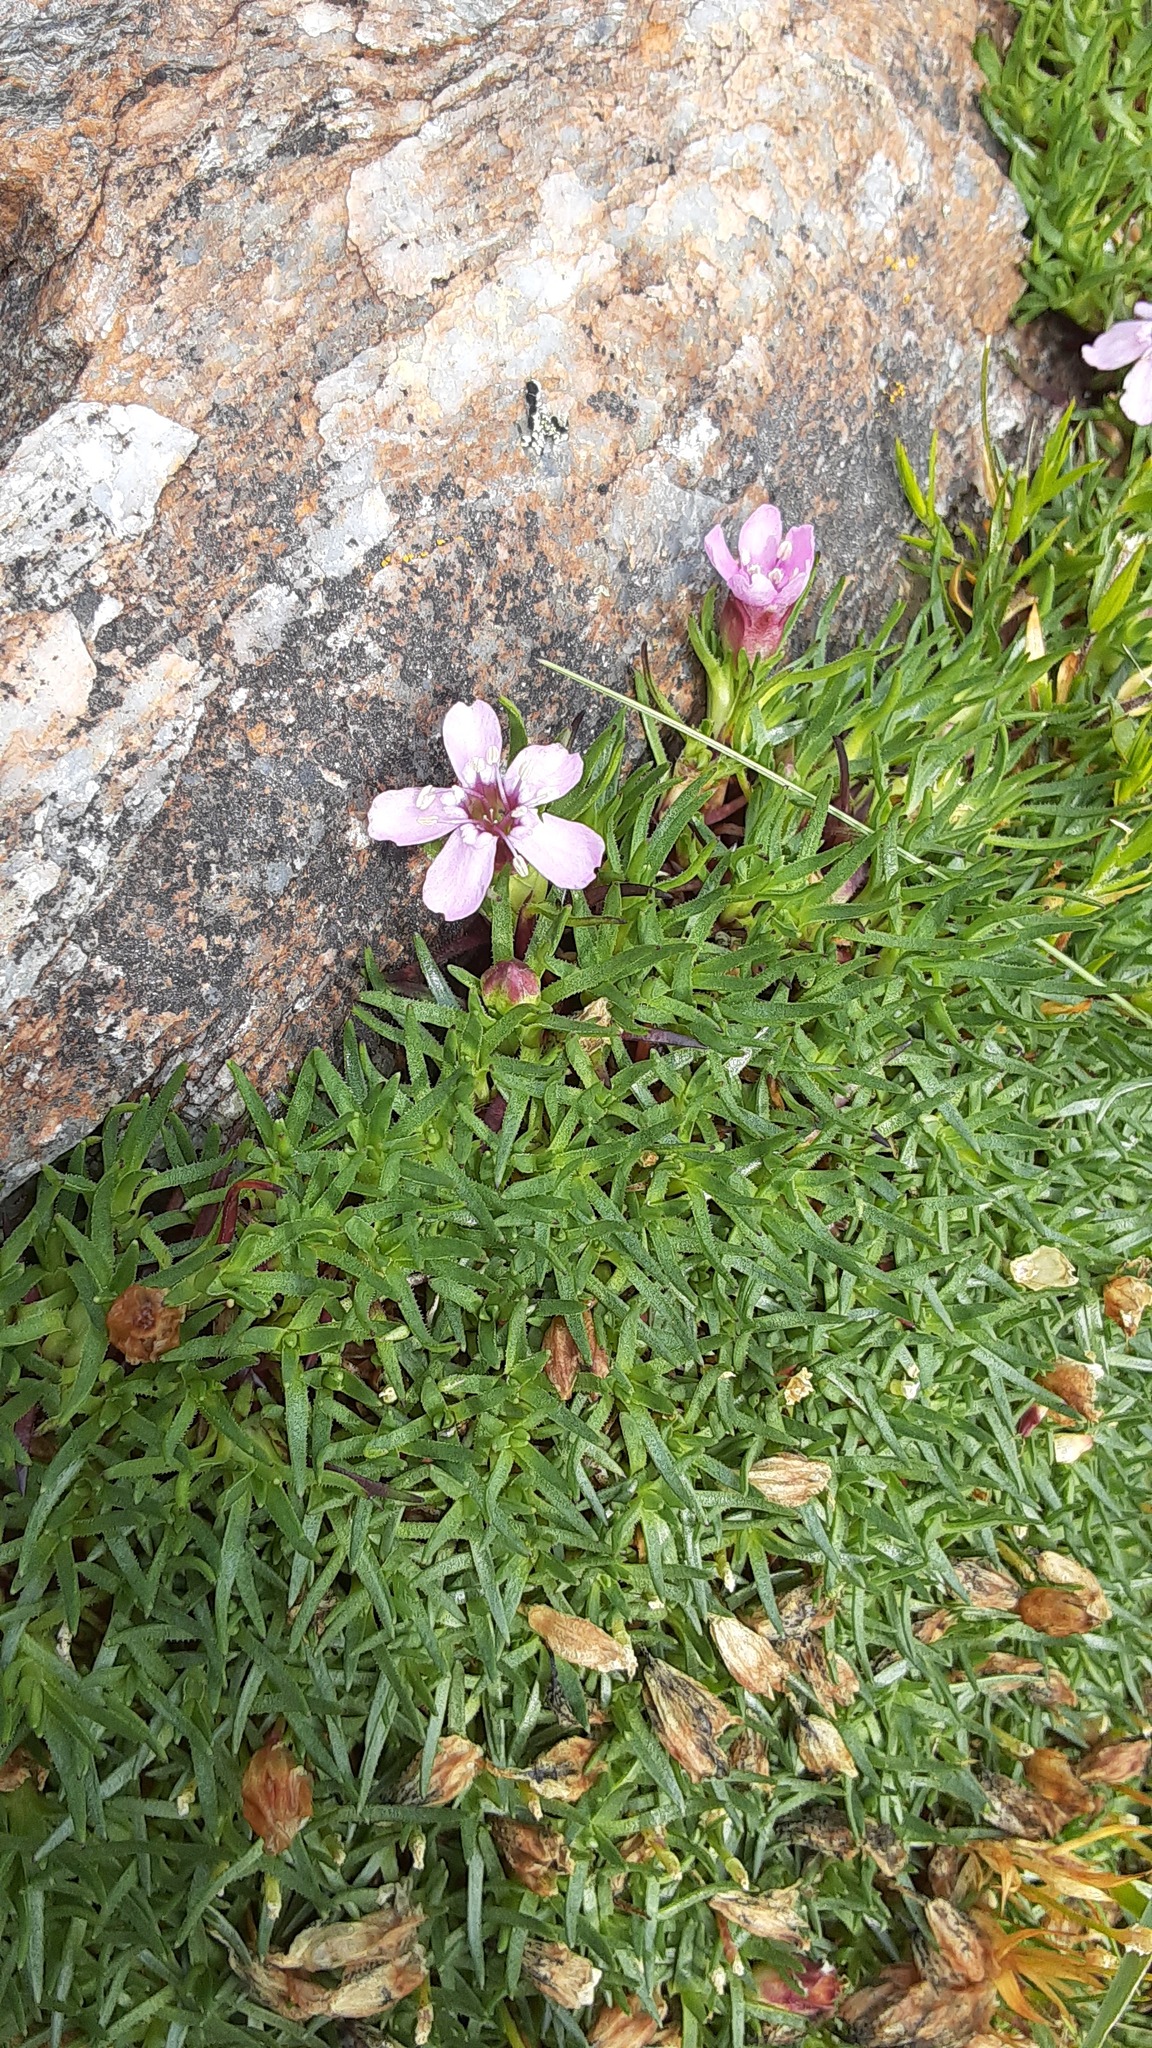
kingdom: Plantae
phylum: Tracheophyta
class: Magnoliopsida
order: Caryophyllales
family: Caryophyllaceae
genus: Silene
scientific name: Silene acaulis
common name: Moss campion
